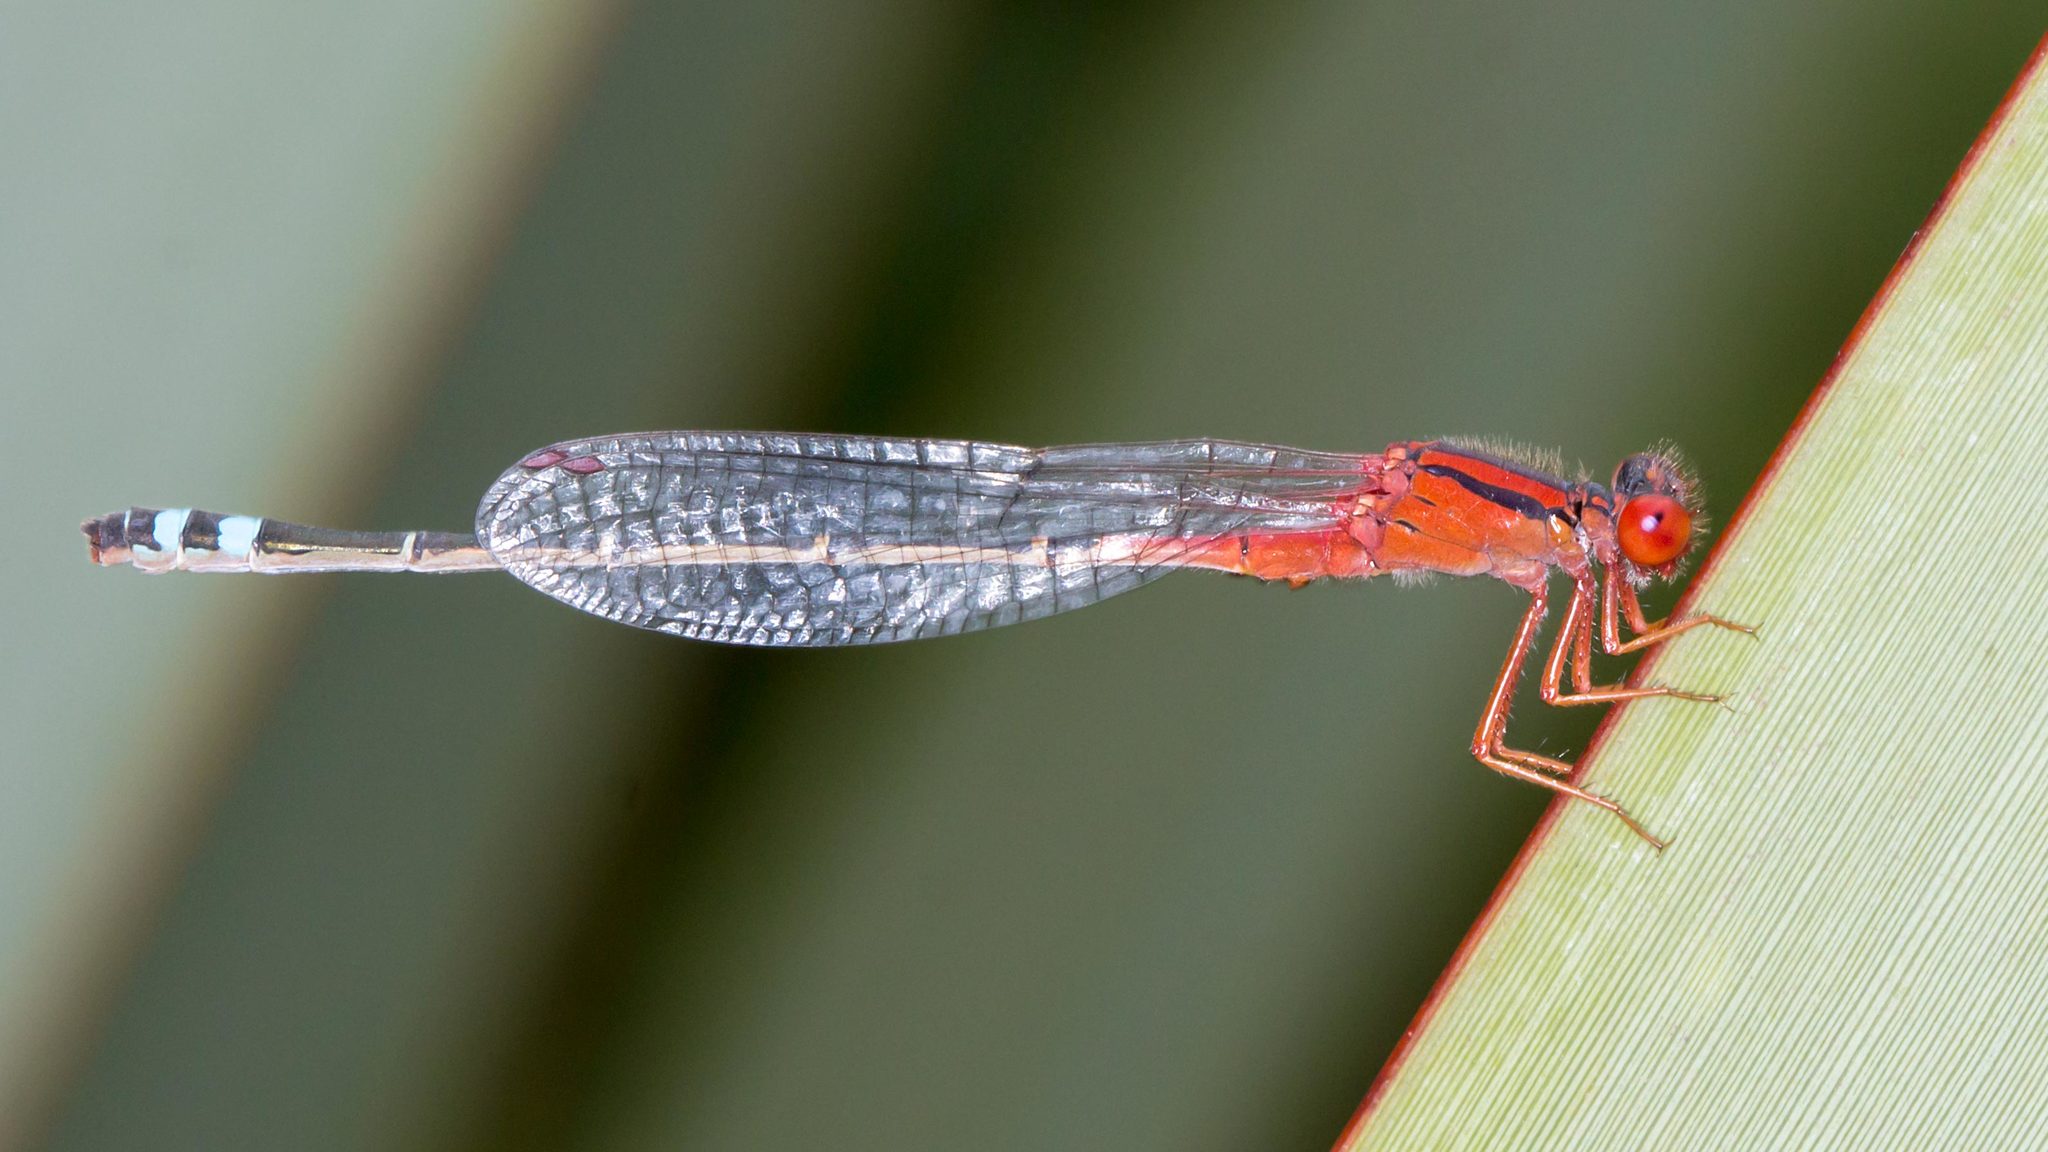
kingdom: Animalia
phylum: Arthropoda
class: Insecta
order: Odonata
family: Coenagrionidae
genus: Xanthagrion
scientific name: Xanthagrion erythroneurum
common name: Red and blue damsel
